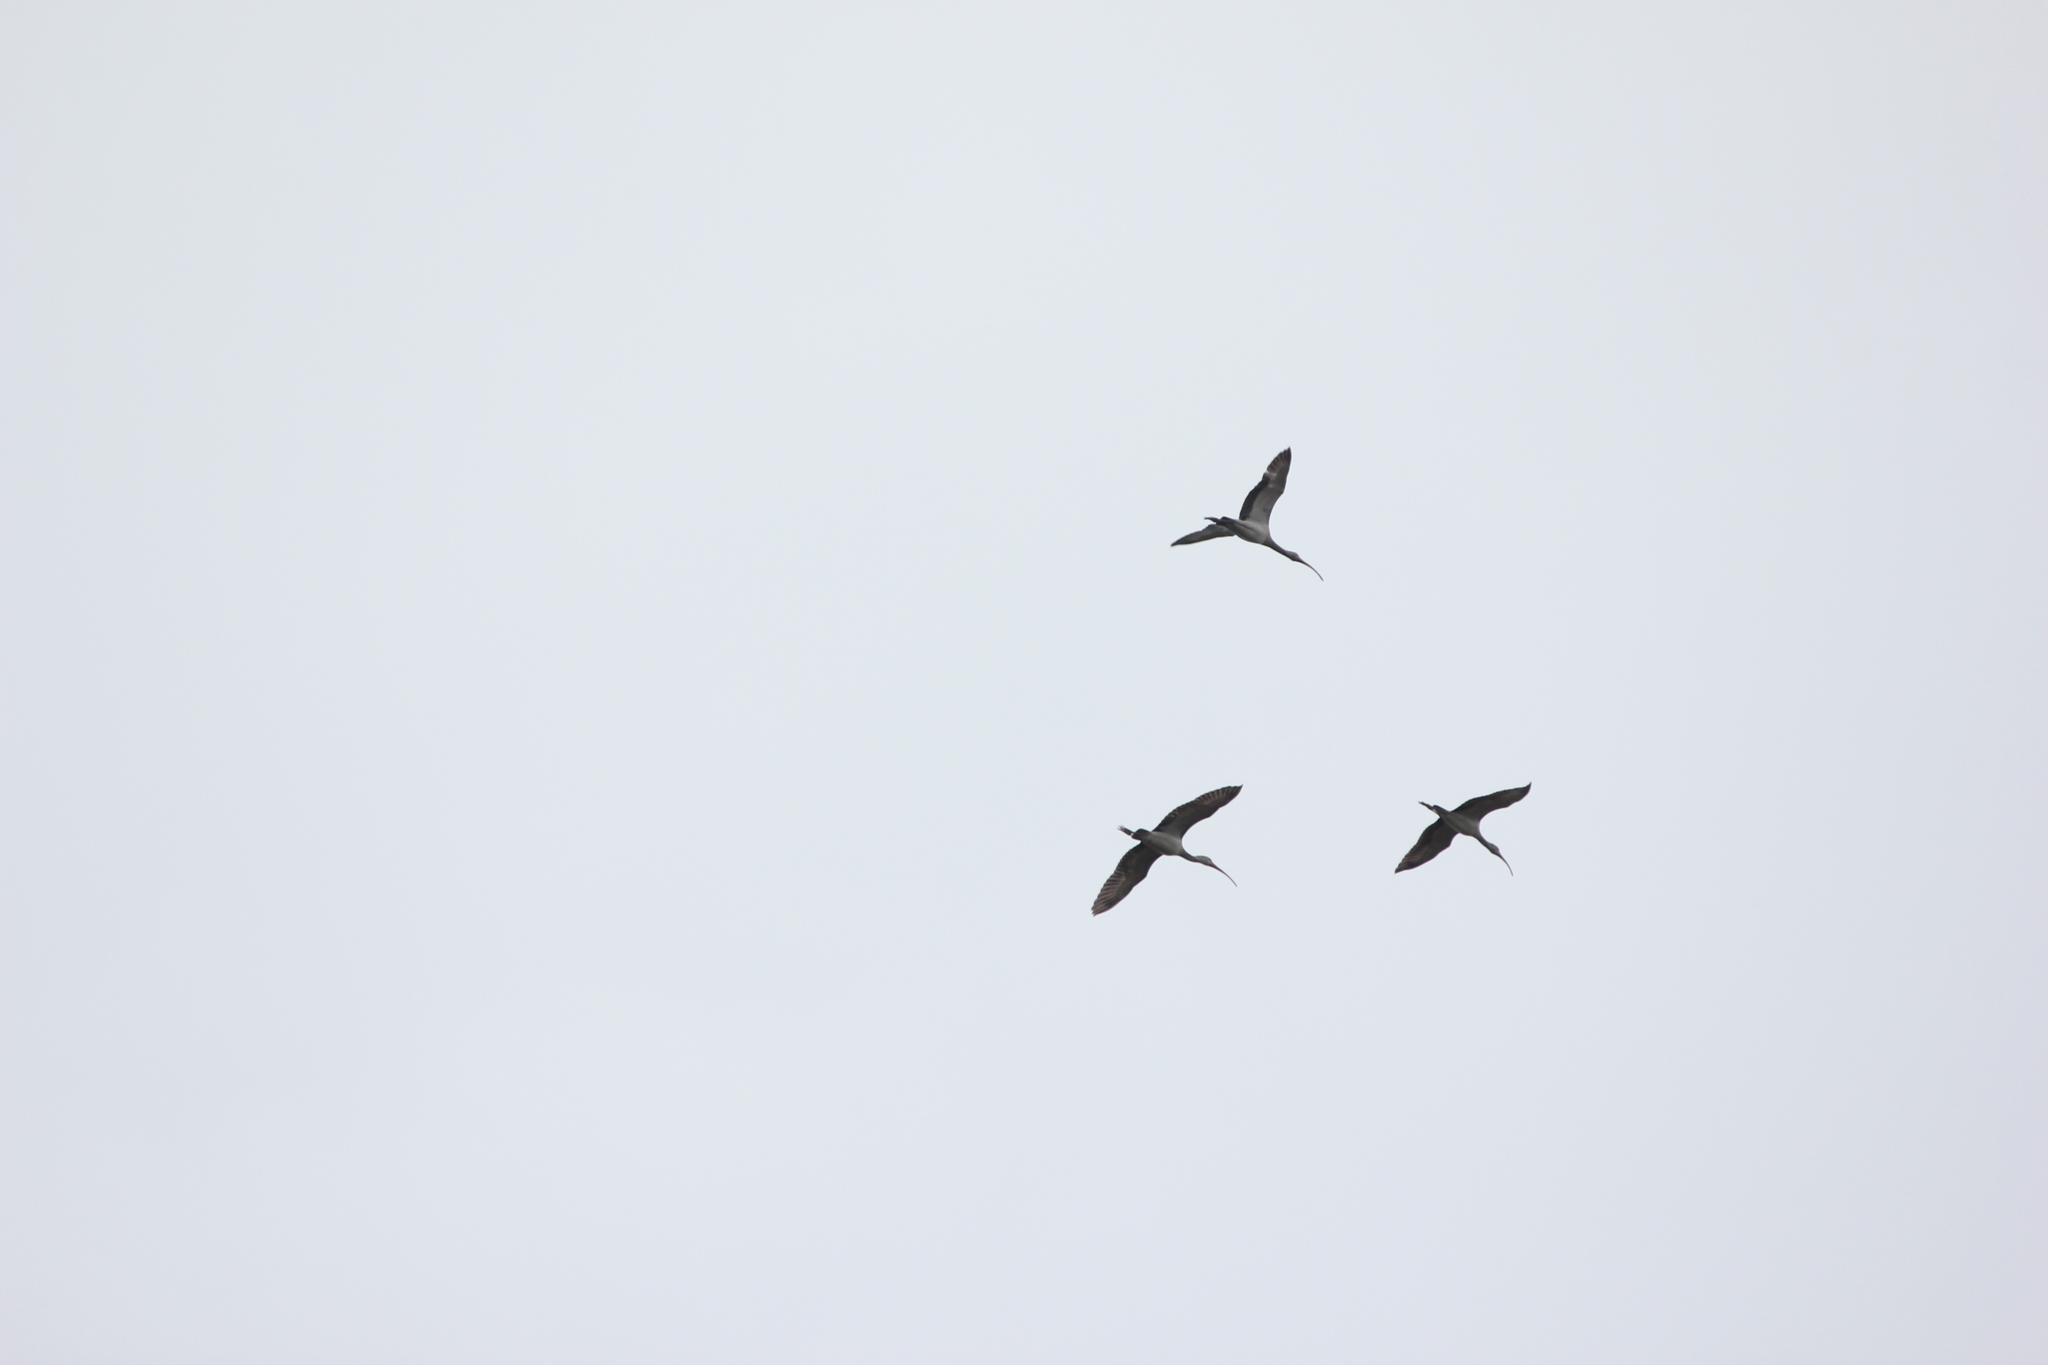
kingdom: Animalia
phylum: Chordata
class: Aves
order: Pelecaniformes
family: Threskiornithidae
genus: Eudocimus
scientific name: Eudocimus albus
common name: White ibis
